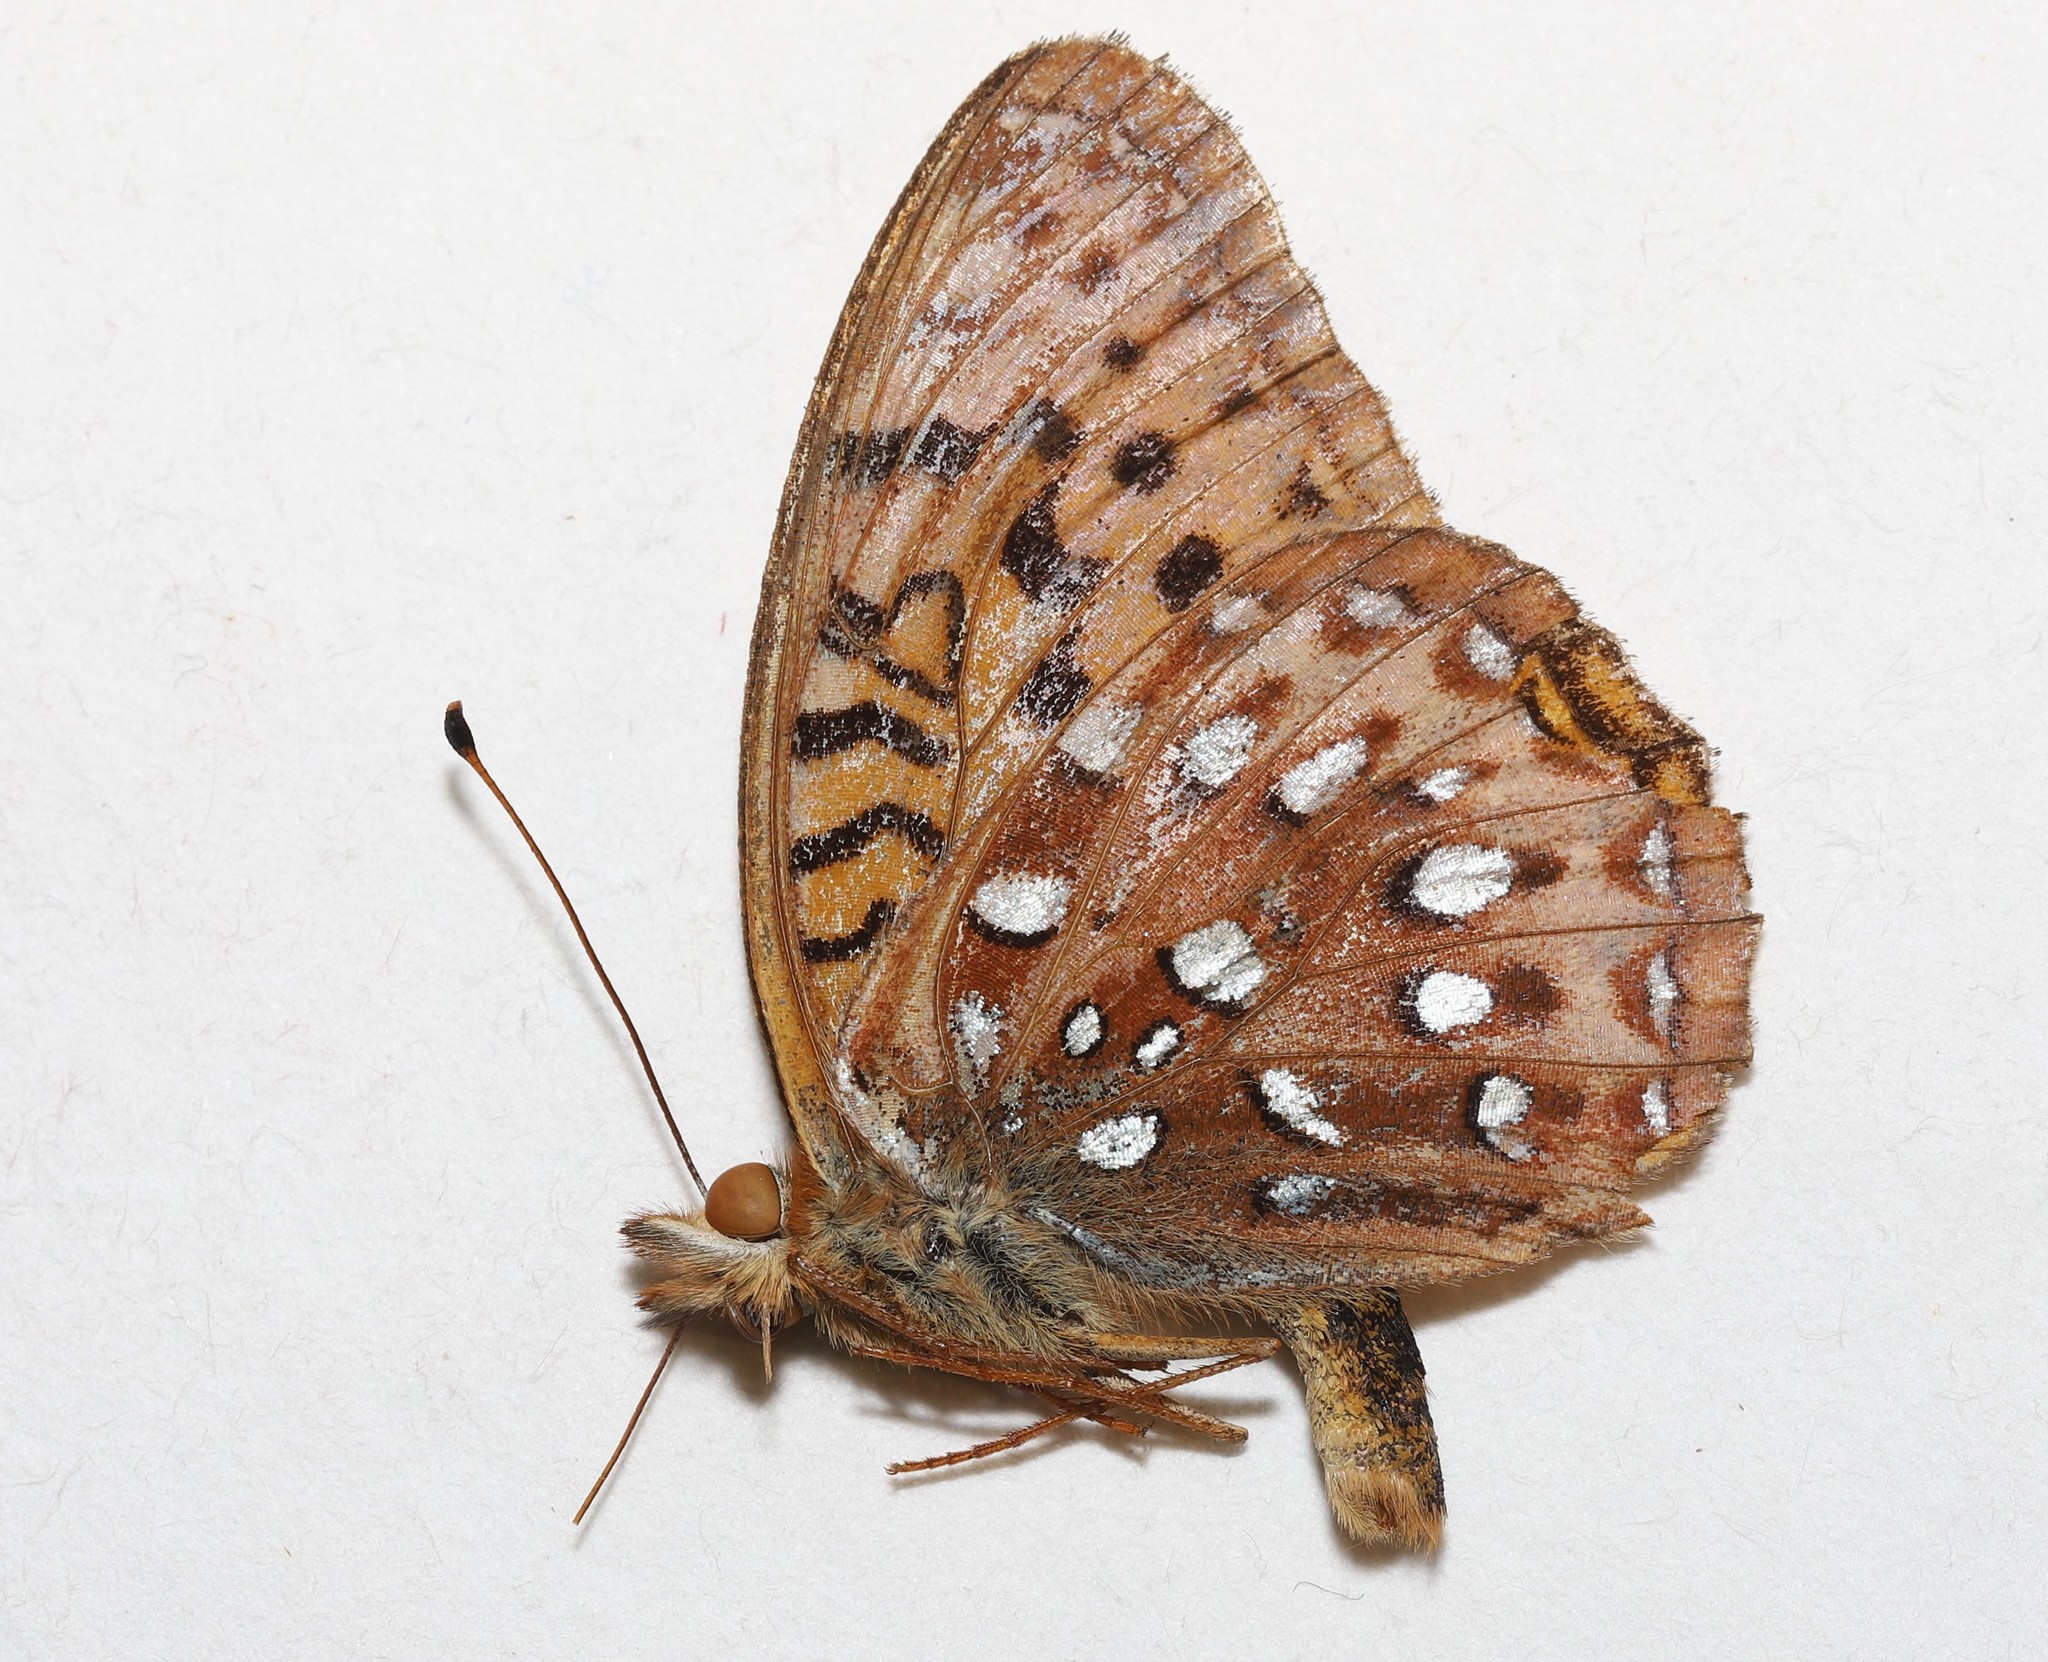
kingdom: Animalia
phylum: Arthropoda
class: Insecta
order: Lepidoptera
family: Nymphalidae
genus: Speyeria
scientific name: Speyeria aphrodite
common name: Aphrodite friitllary
